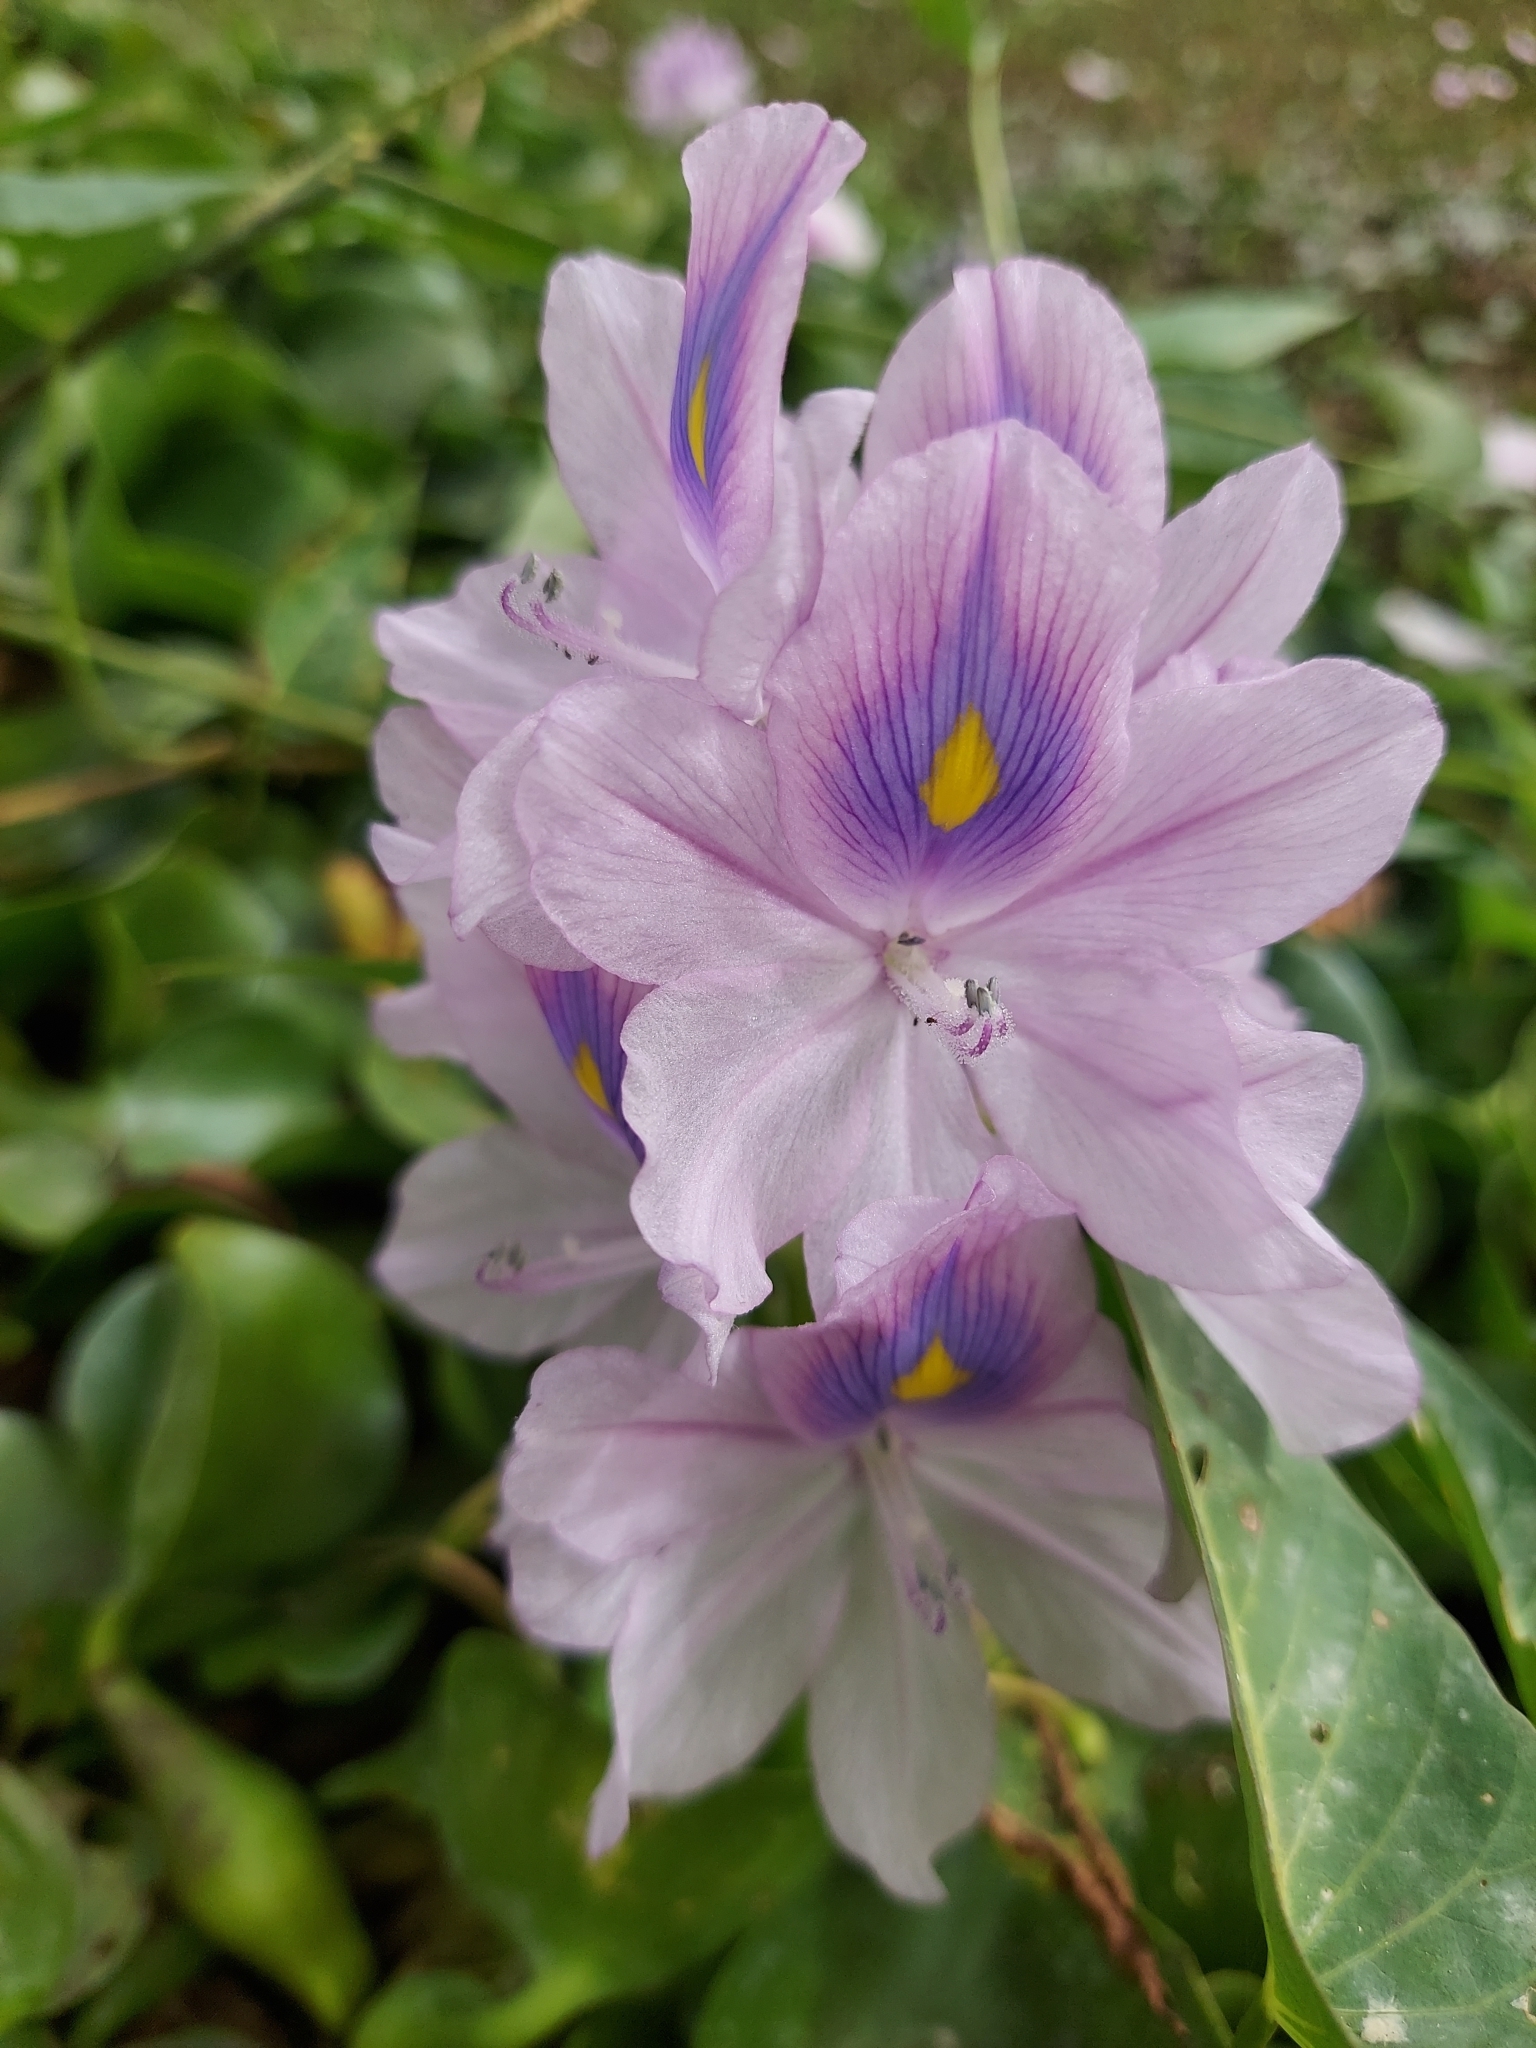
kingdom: Plantae
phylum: Tracheophyta
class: Liliopsida
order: Commelinales
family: Pontederiaceae
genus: Pontederia
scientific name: Pontederia crassipes
